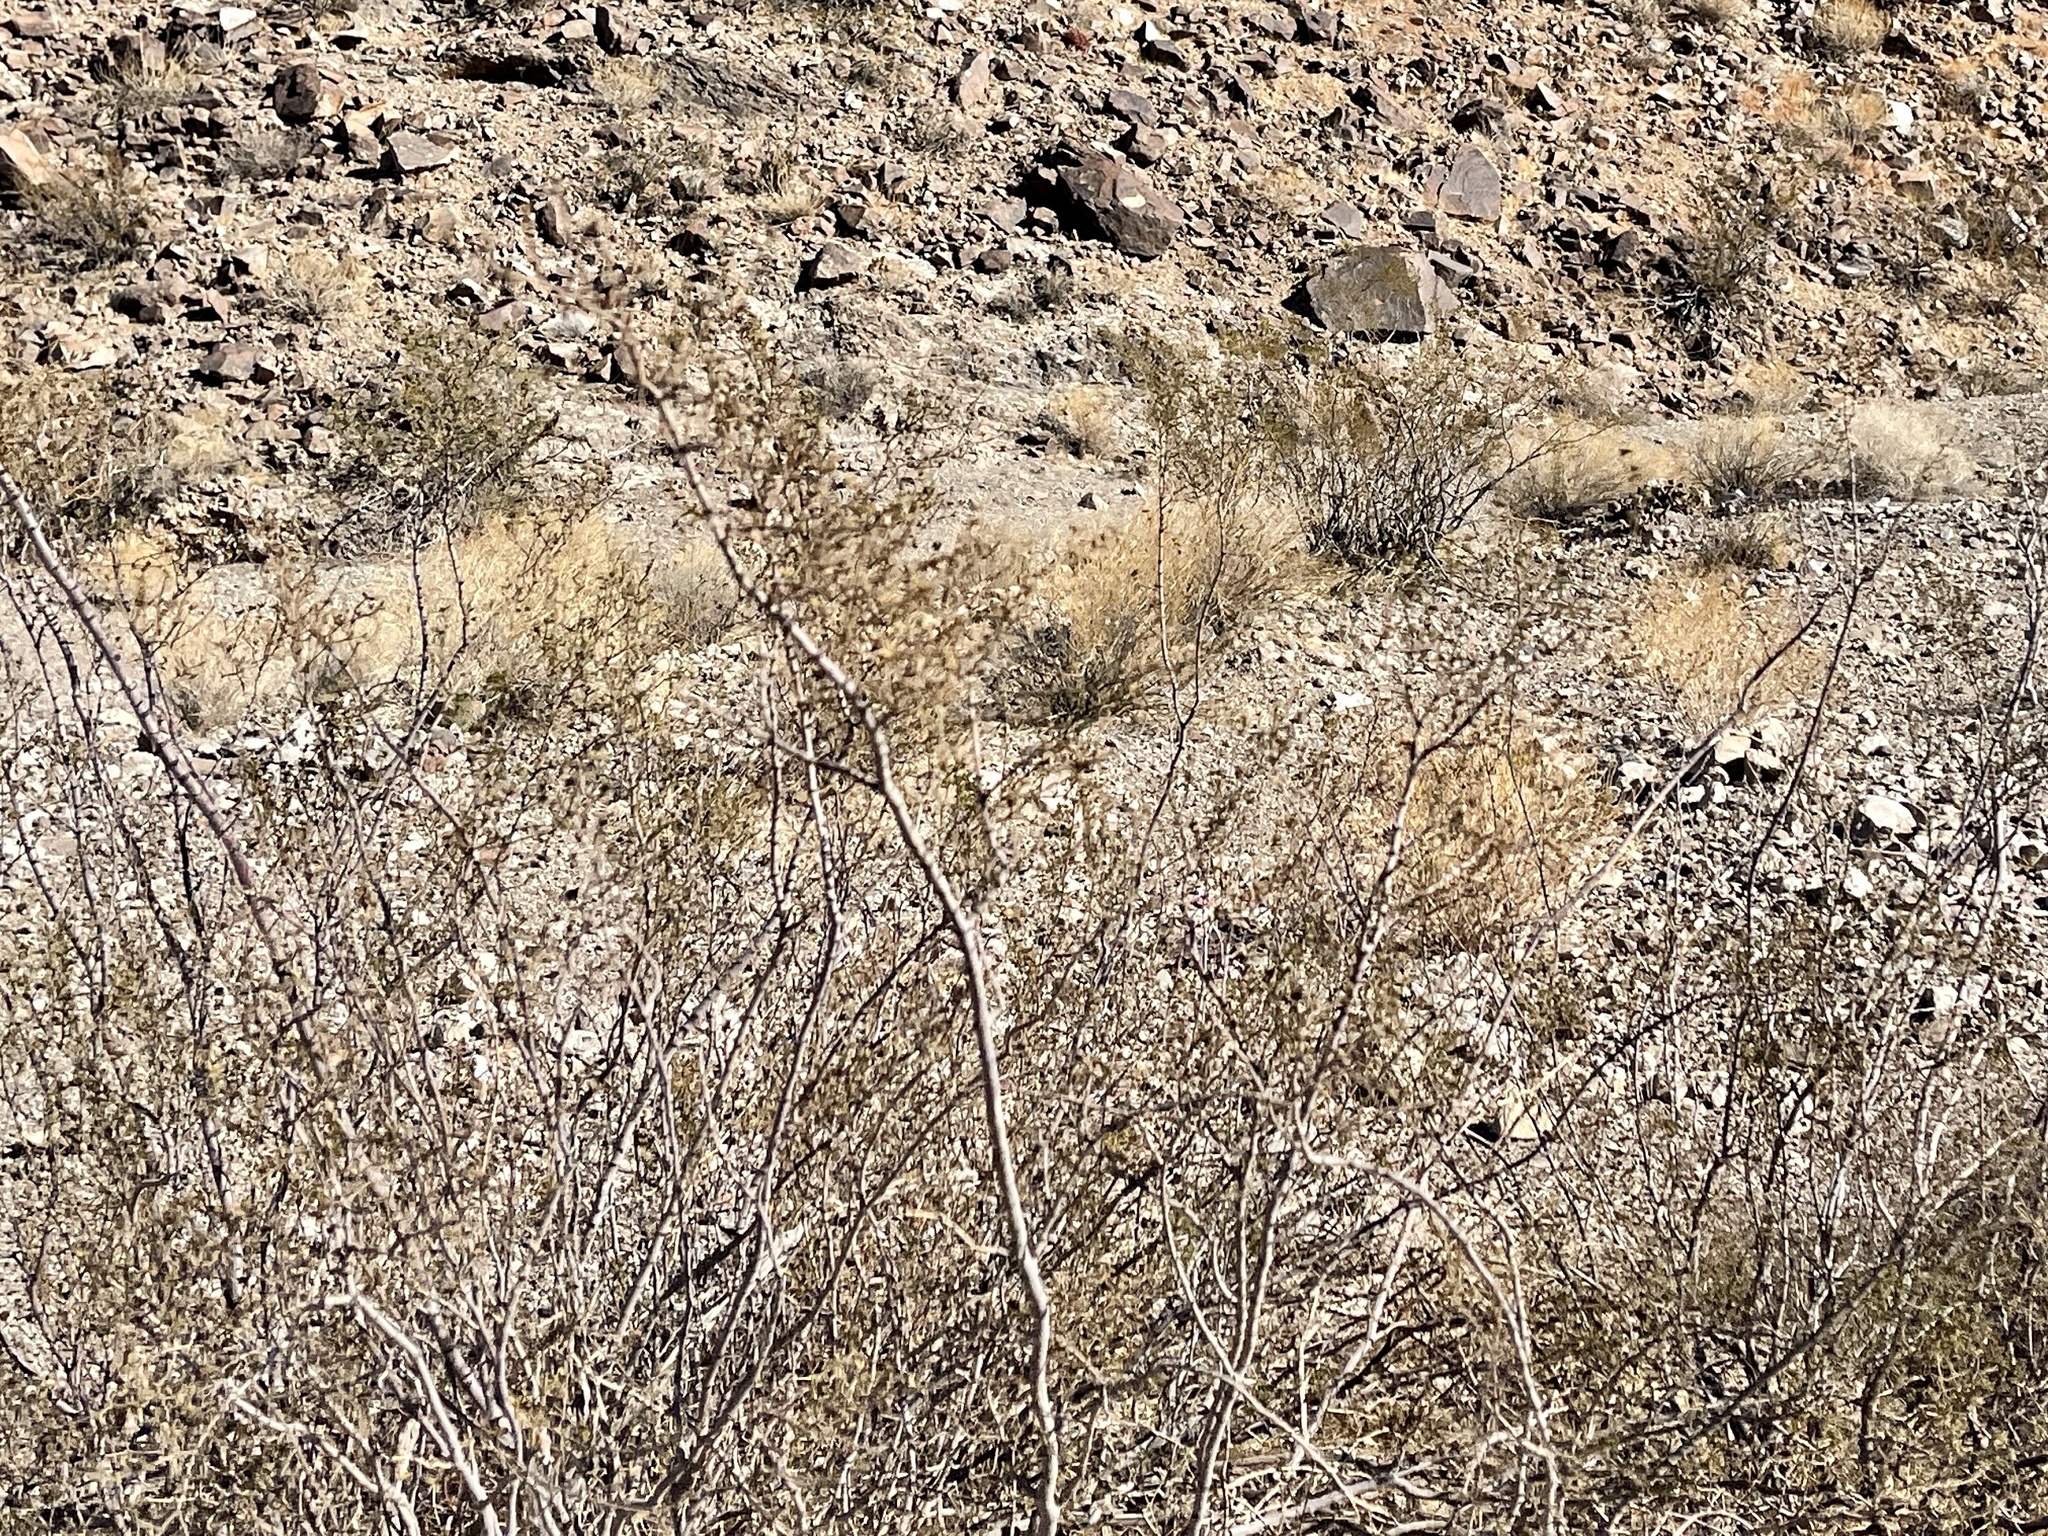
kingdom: Plantae
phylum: Tracheophyta
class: Magnoliopsida
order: Zygophyllales
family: Zygophyllaceae
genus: Larrea
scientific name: Larrea tridentata
